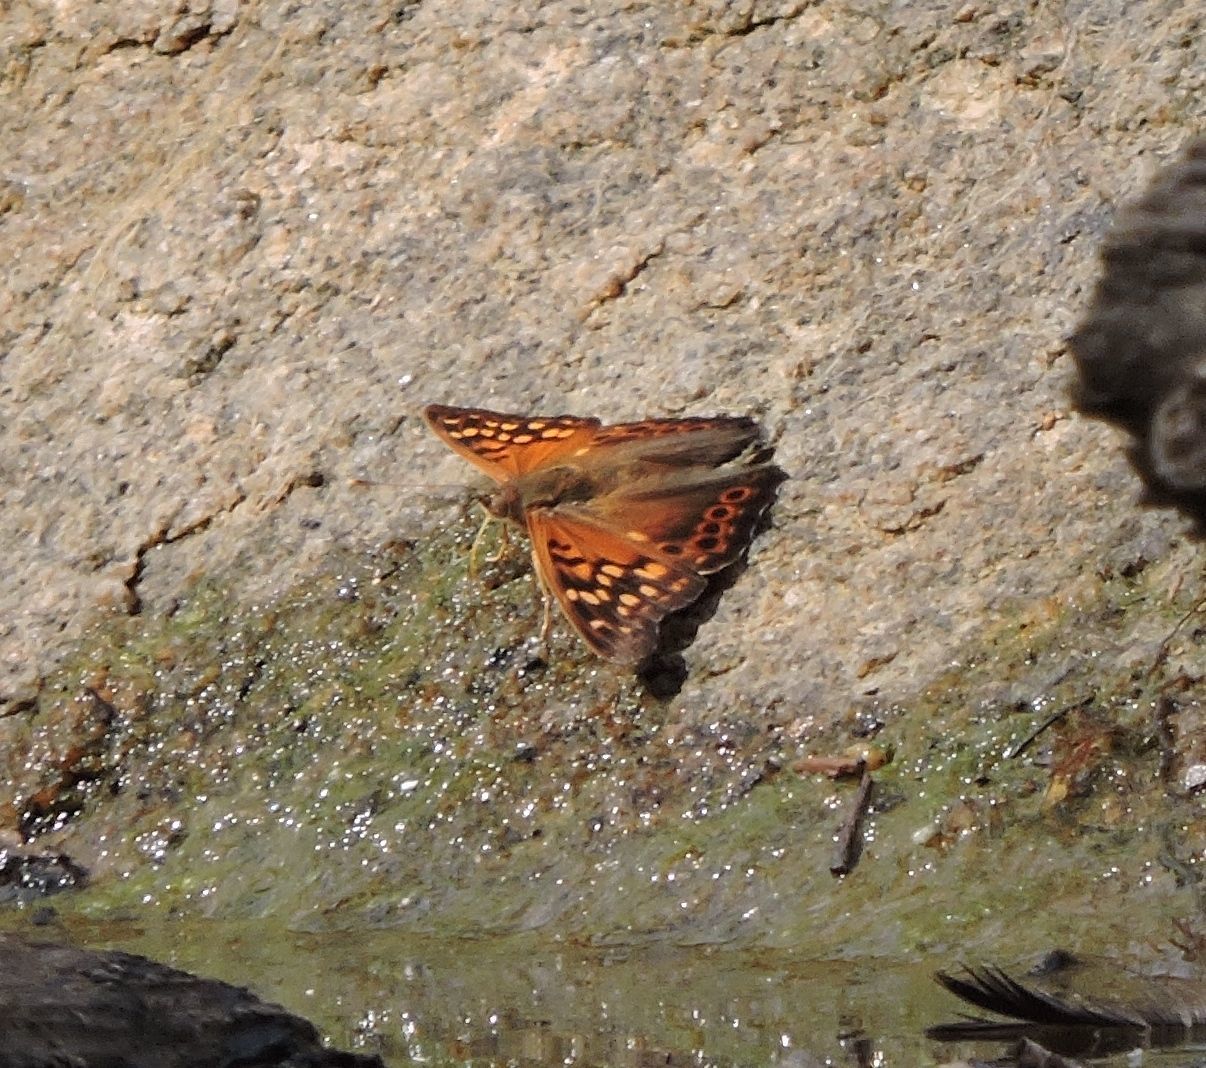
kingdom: Animalia
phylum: Arthropoda
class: Insecta
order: Lepidoptera
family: Nymphalidae
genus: Asterocampa
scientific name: Asterocampa clyton
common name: Tawny emperor
